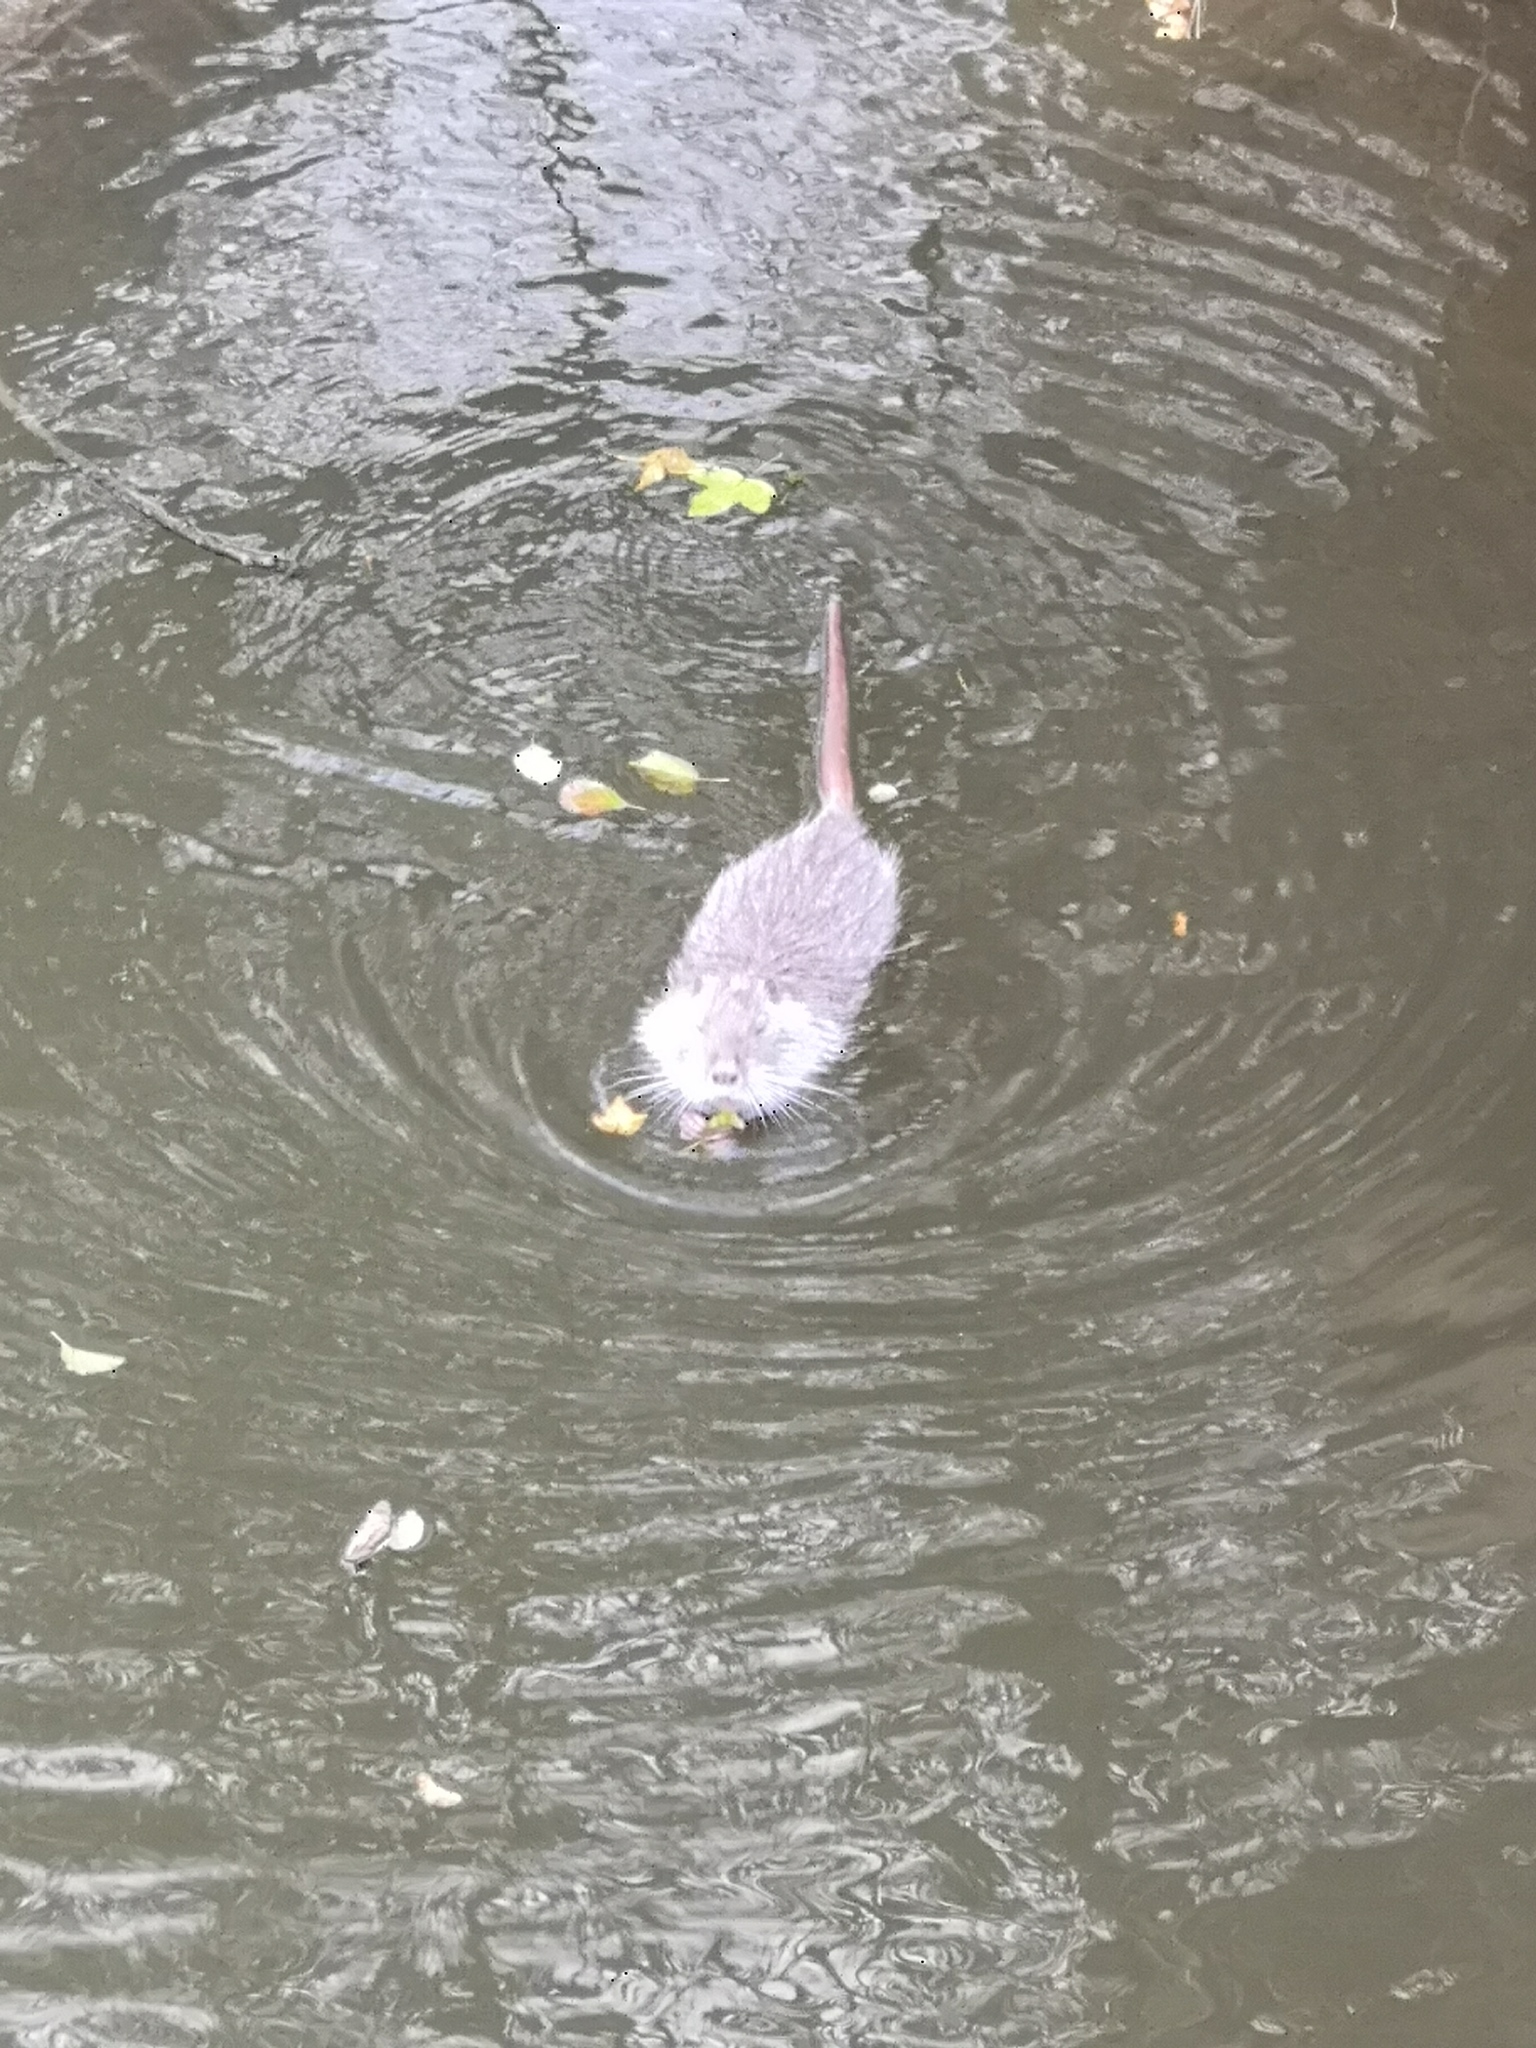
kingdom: Animalia
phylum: Chordata
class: Mammalia
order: Rodentia
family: Myocastoridae
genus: Myocastor
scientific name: Myocastor coypus
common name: Coypu
